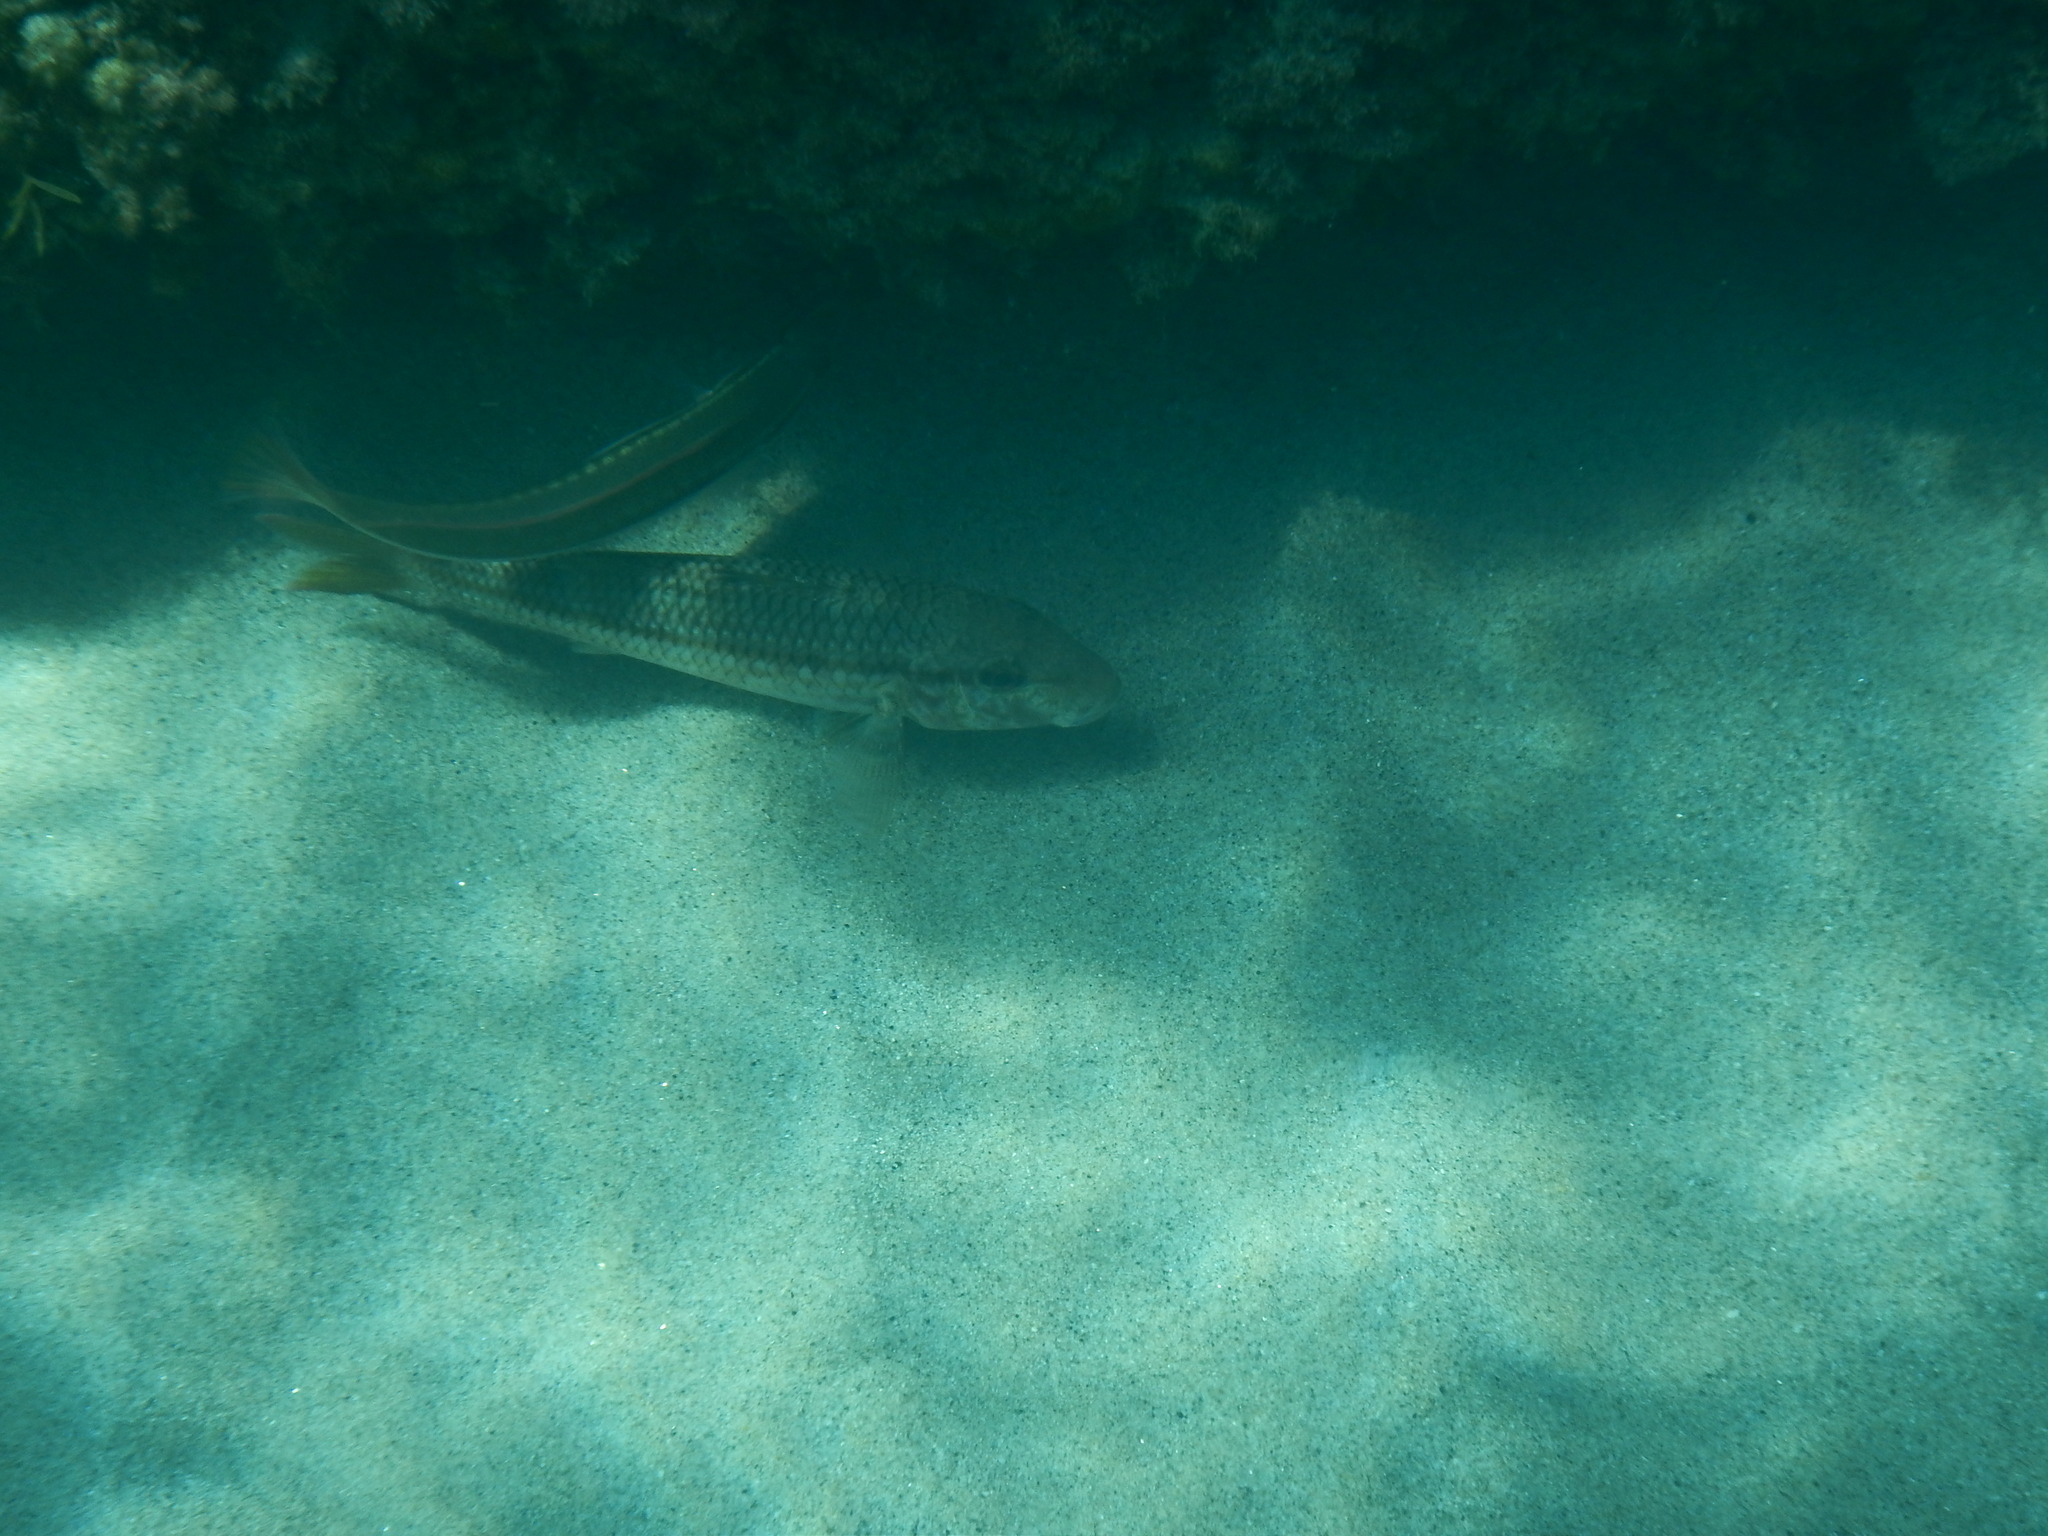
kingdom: Animalia
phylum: Chordata
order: Perciformes
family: Mullidae
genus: Mullus
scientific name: Mullus surmuletus
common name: Red mullet
